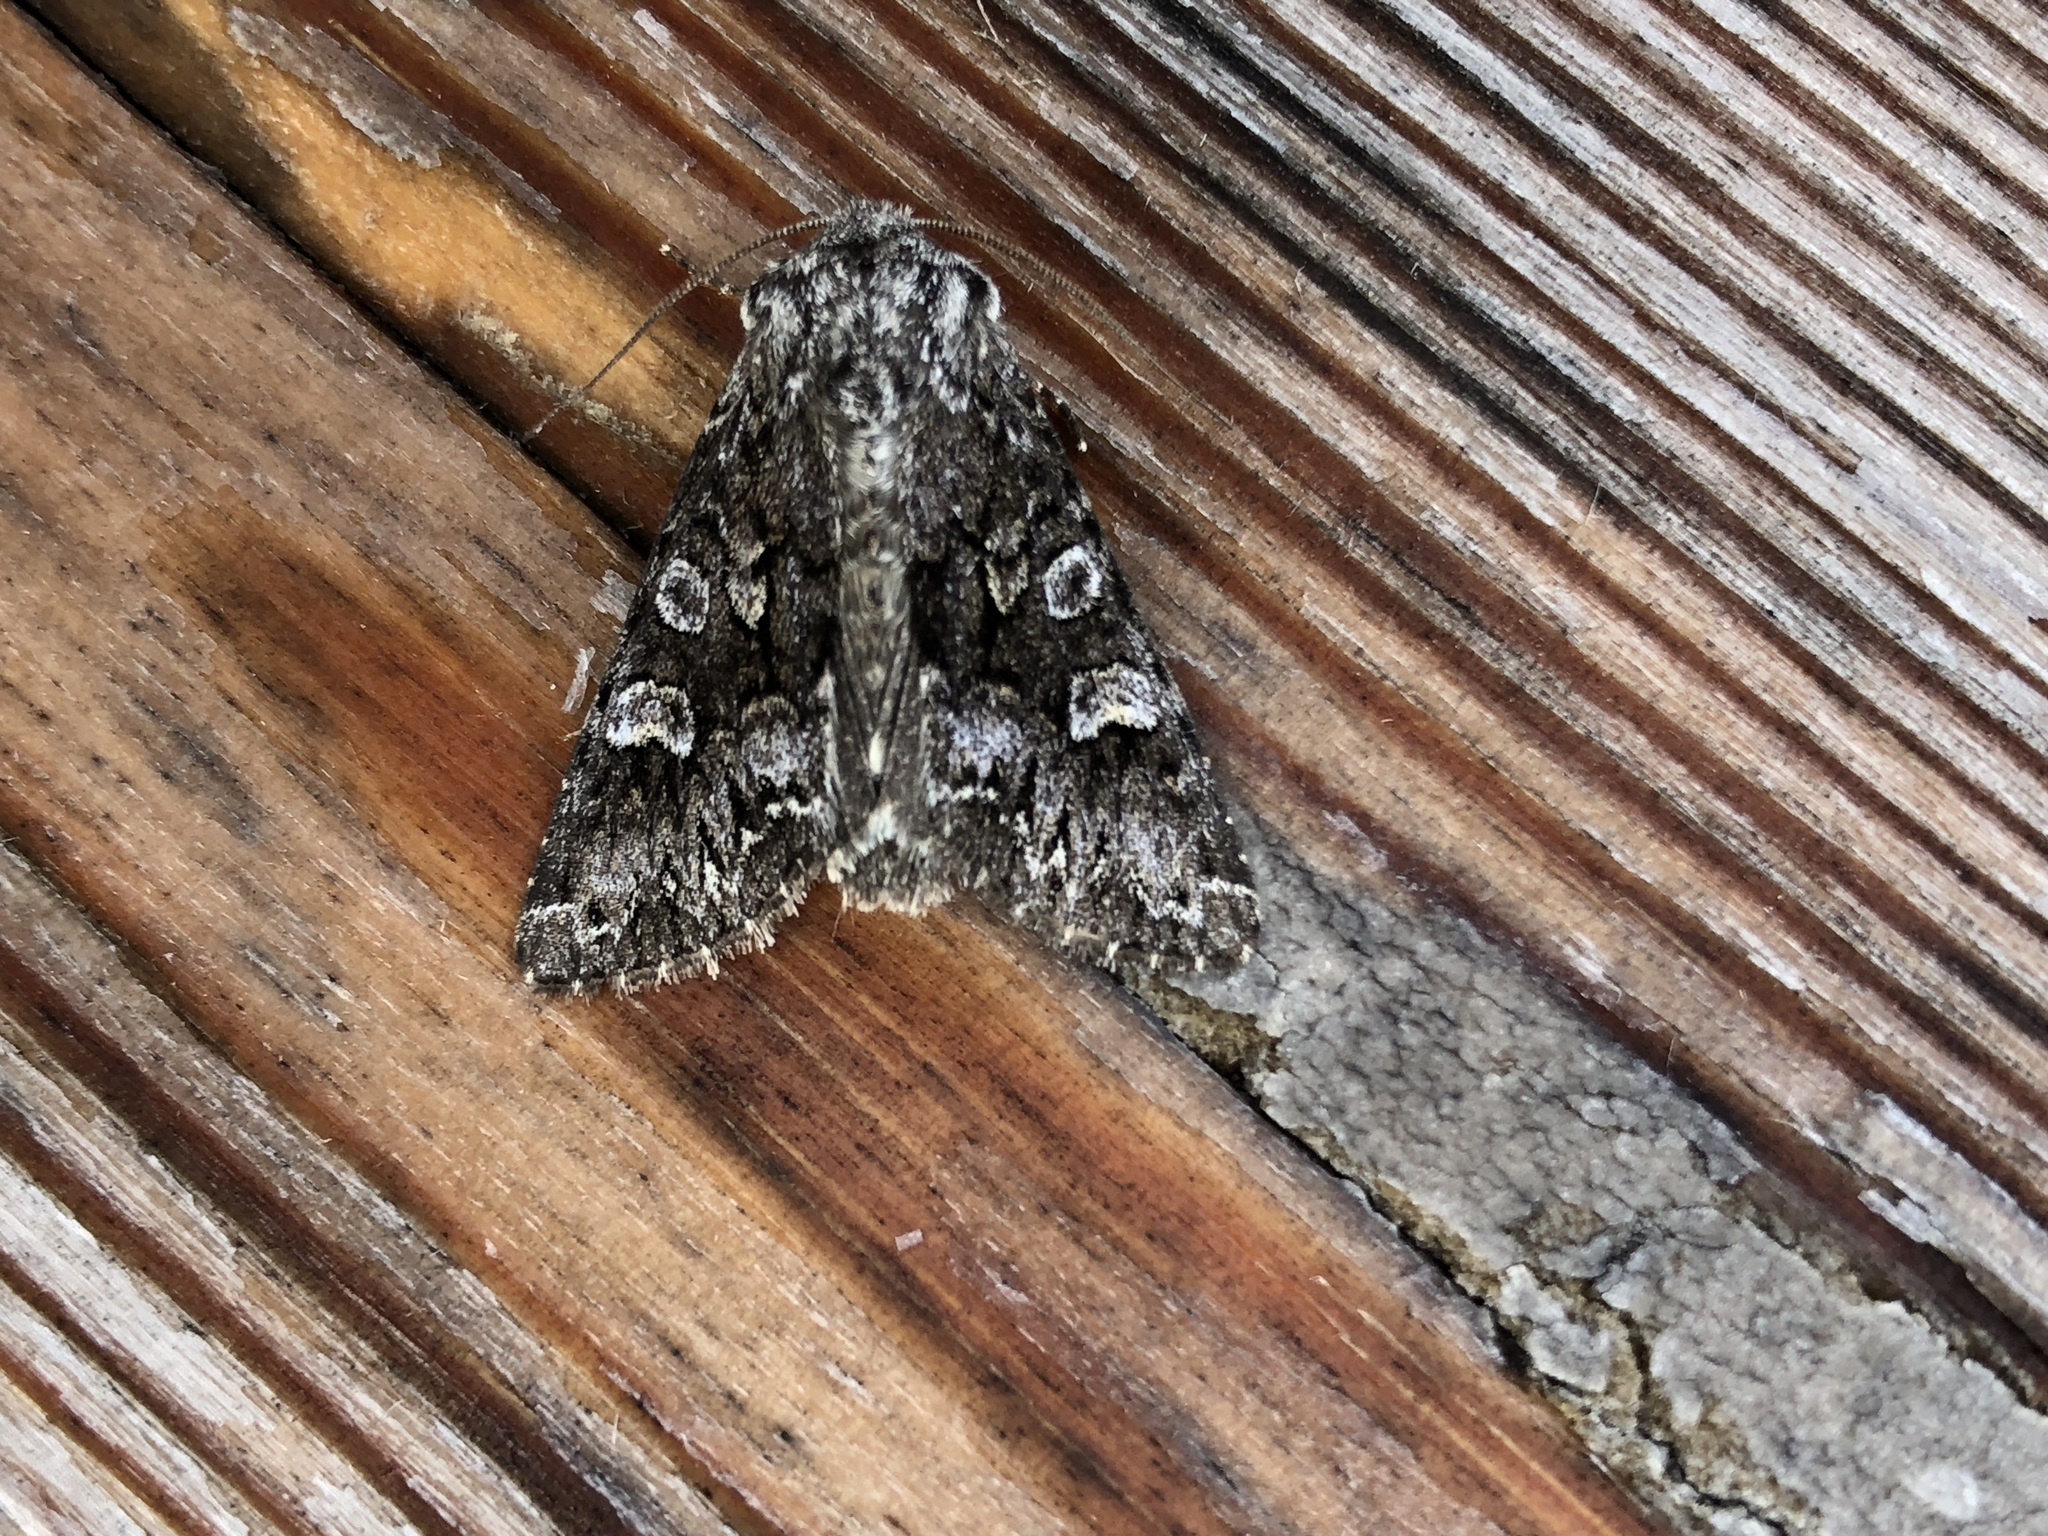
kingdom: Animalia
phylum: Arthropoda
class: Insecta
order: Lepidoptera
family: Noctuidae
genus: Papestra
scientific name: Papestra biren
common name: Glaucous shears
